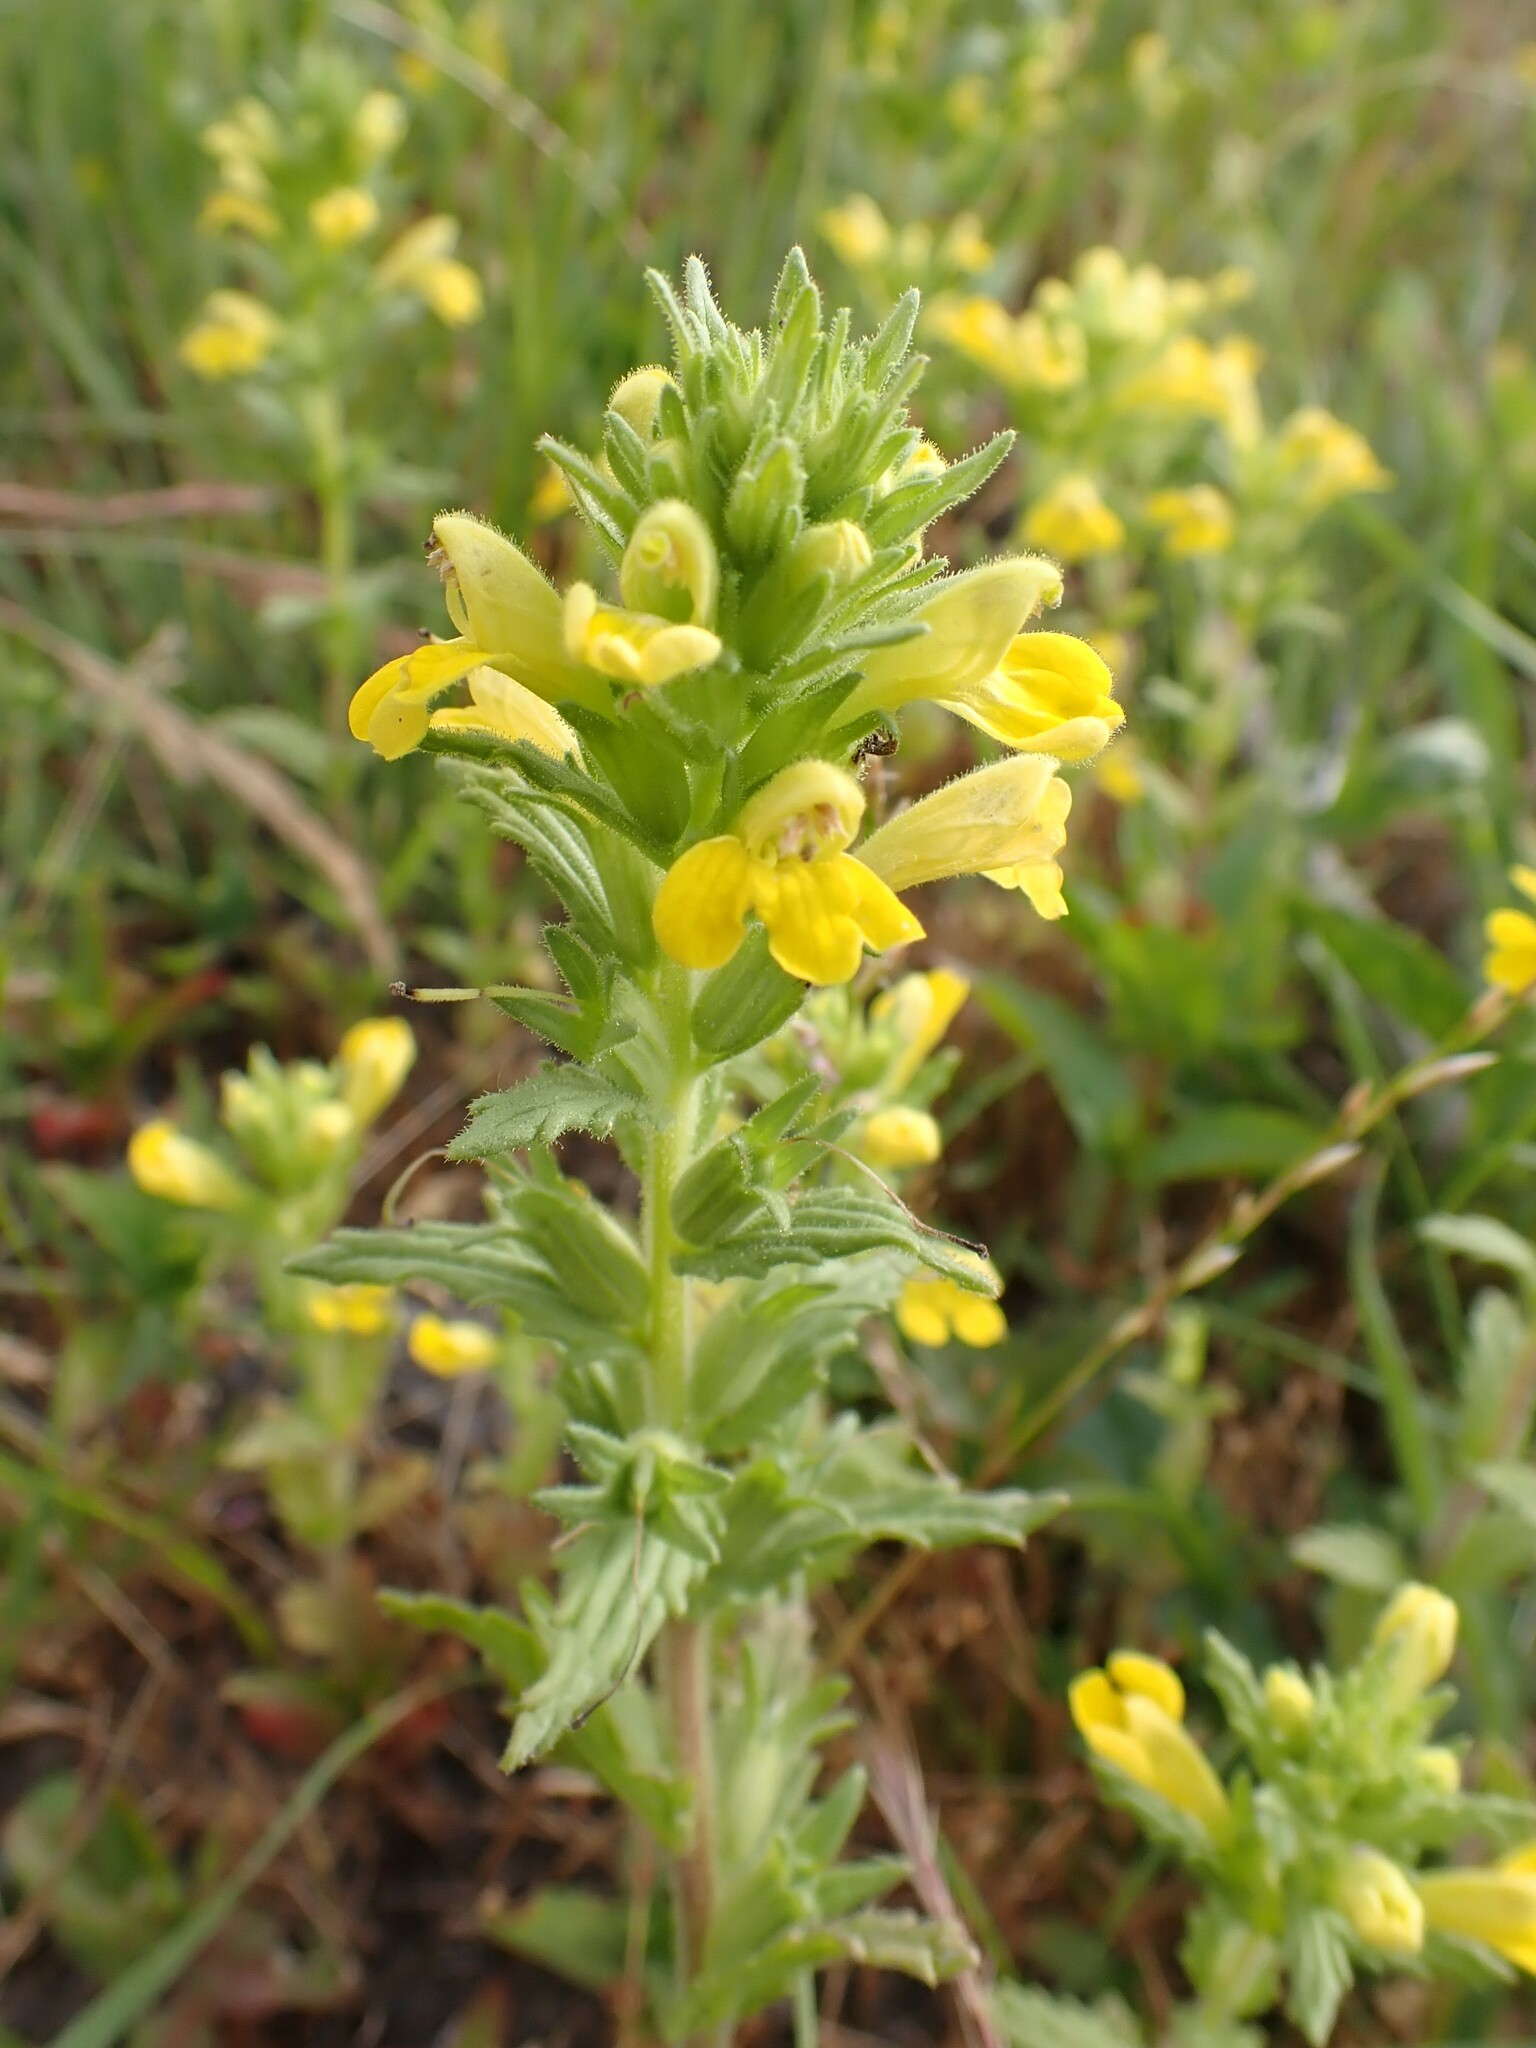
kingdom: Plantae
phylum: Tracheophyta
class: Magnoliopsida
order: Lamiales
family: Orobanchaceae
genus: Bellardia
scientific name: Bellardia viscosa
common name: Sticky parentucellia
